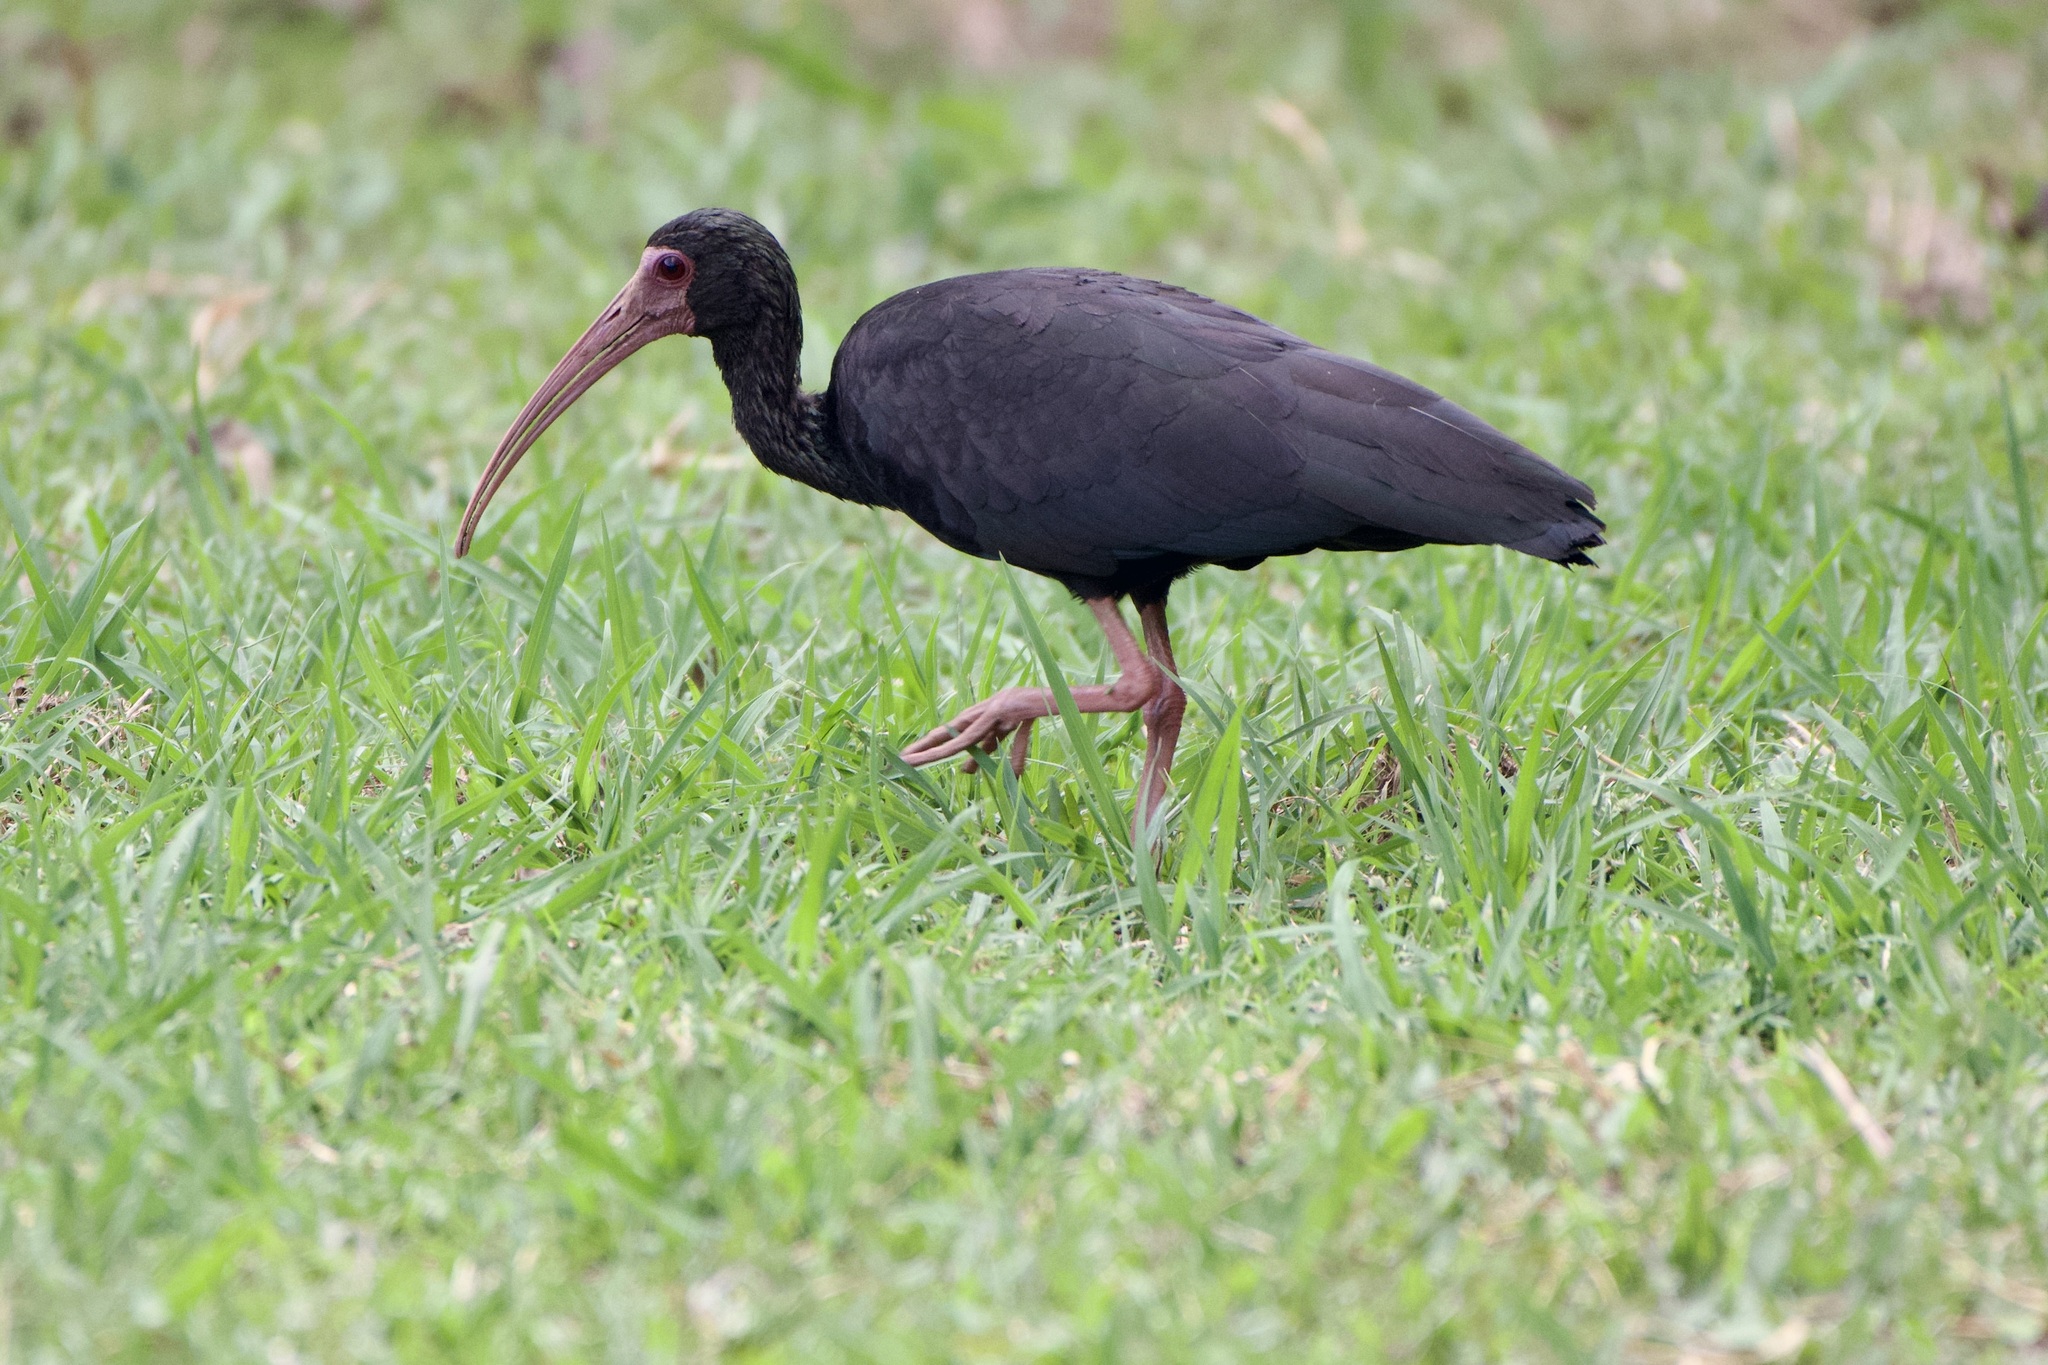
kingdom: Animalia
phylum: Chordata
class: Aves
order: Pelecaniformes
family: Threskiornithidae
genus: Phimosus
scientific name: Phimosus infuscatus
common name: Bare-faced ibis
